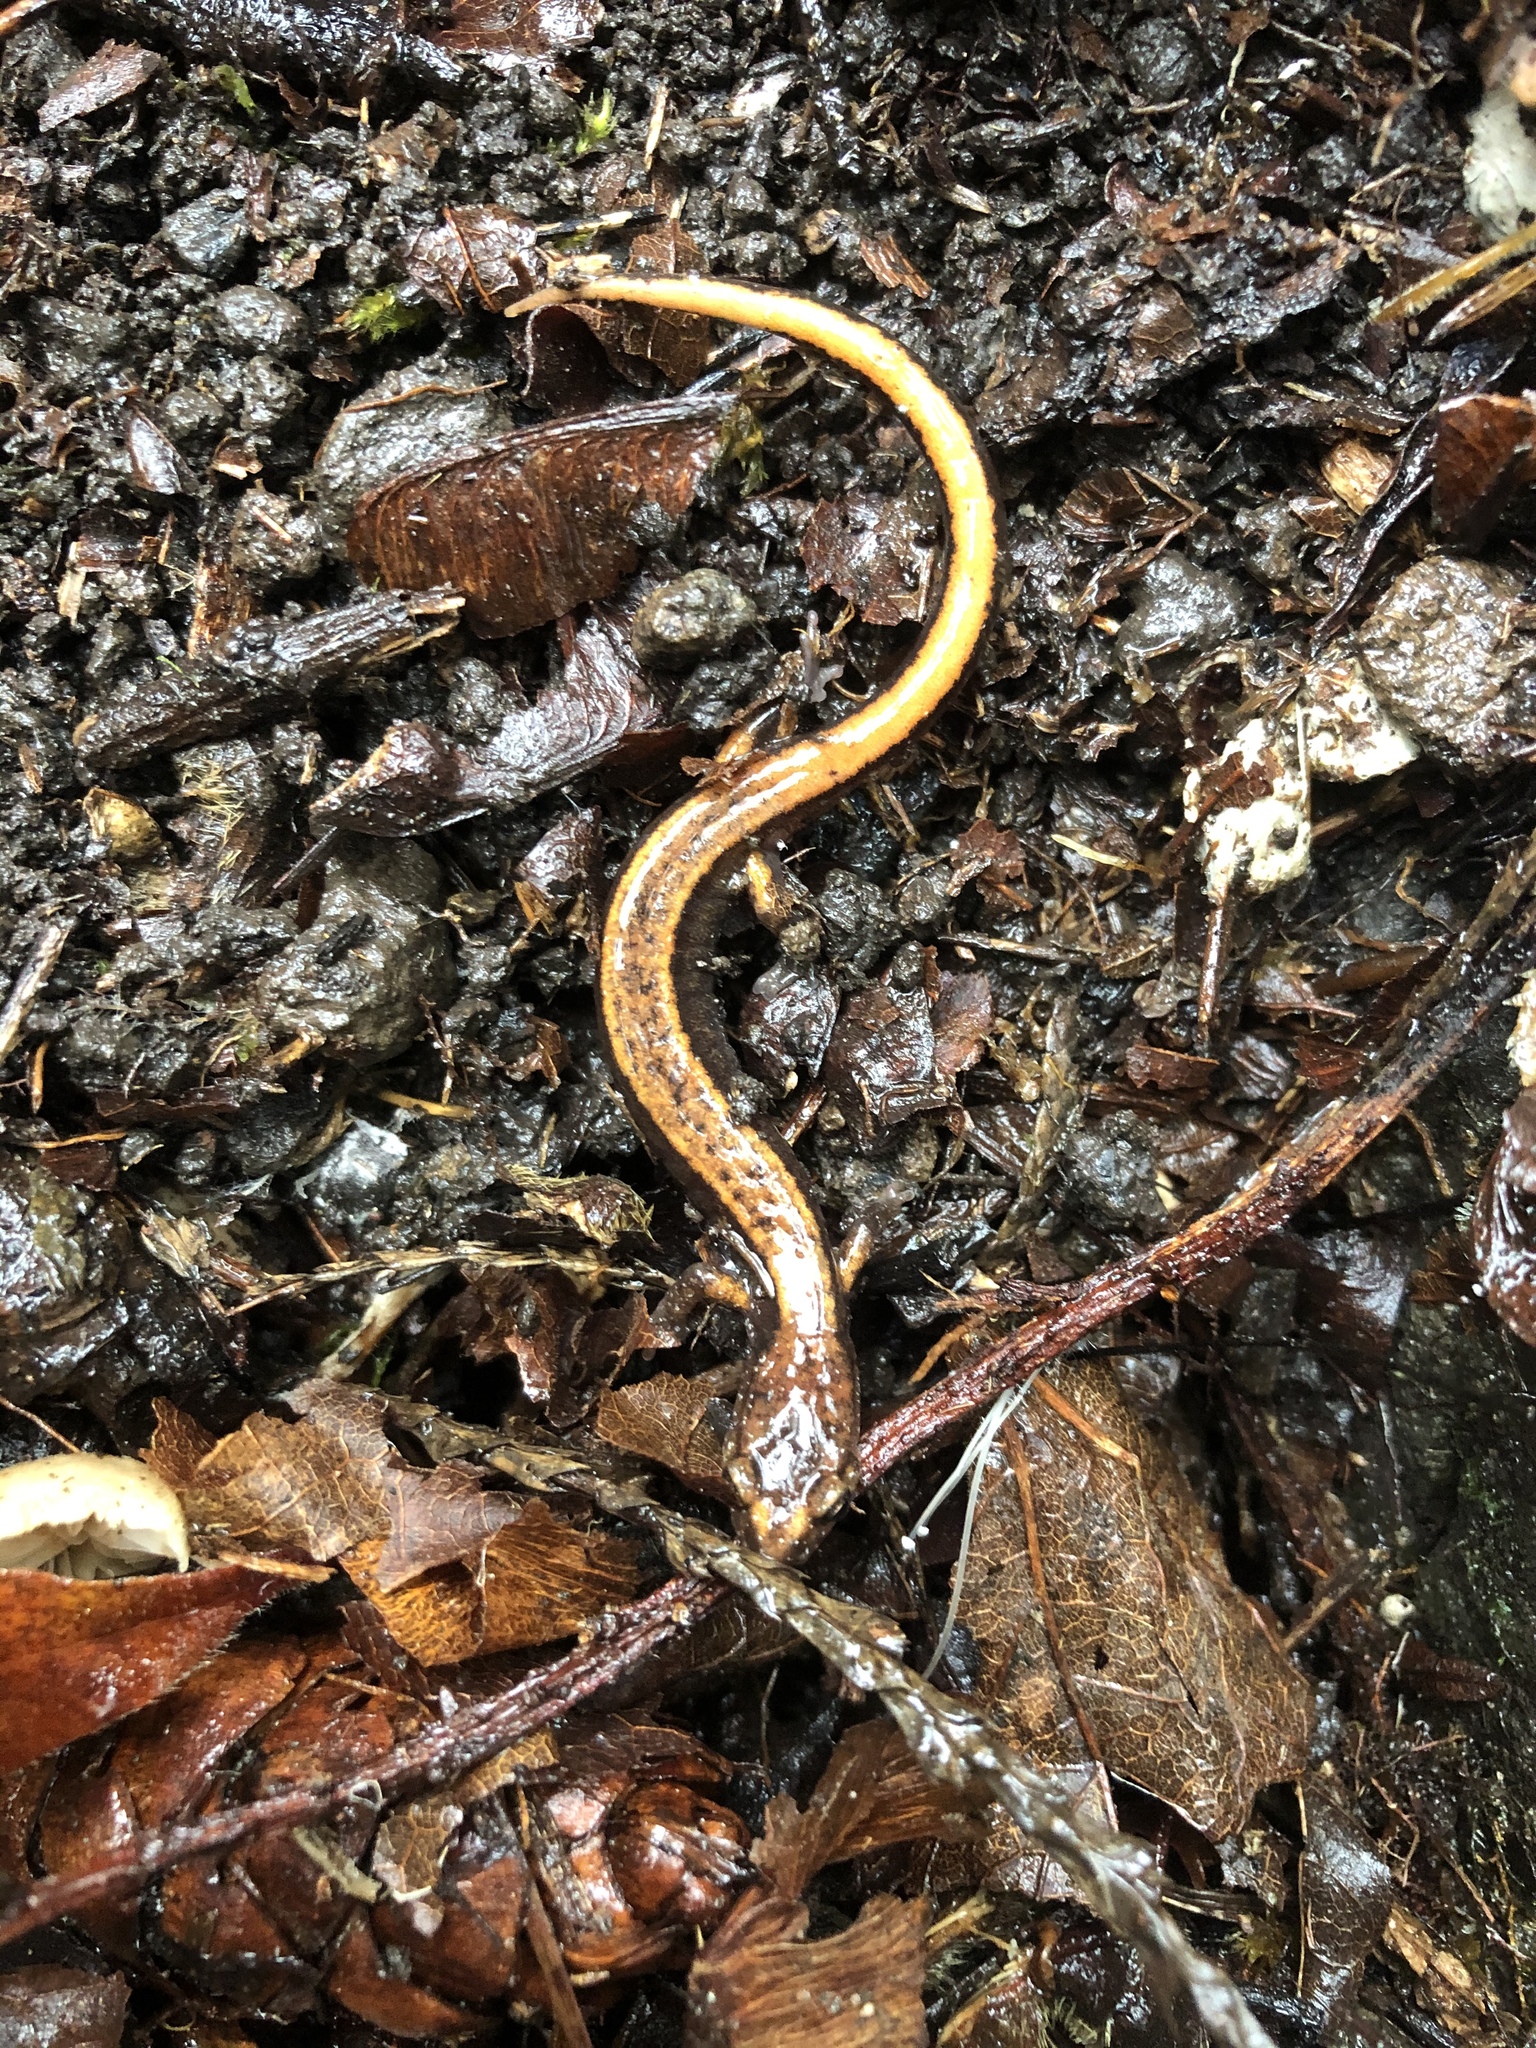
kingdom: Animalia
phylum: Chordata
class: Amphibia
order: Caudata
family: Plethodontidae
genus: Plethodon
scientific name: Plethodon vehiculum
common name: Western red-backed salamander
